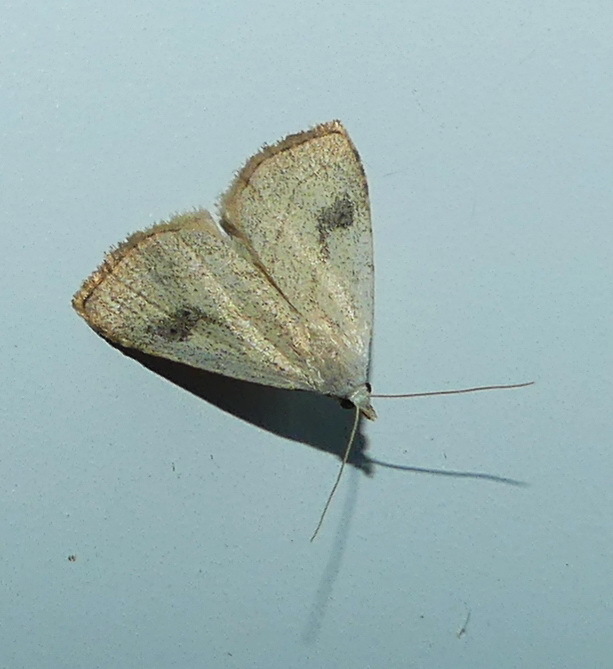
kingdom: Animalia
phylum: Arthropoda
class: Insecta
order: Lepidoptera
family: Erebidae
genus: Rivula
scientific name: Rivula propinqualis
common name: Spotted grass moth
